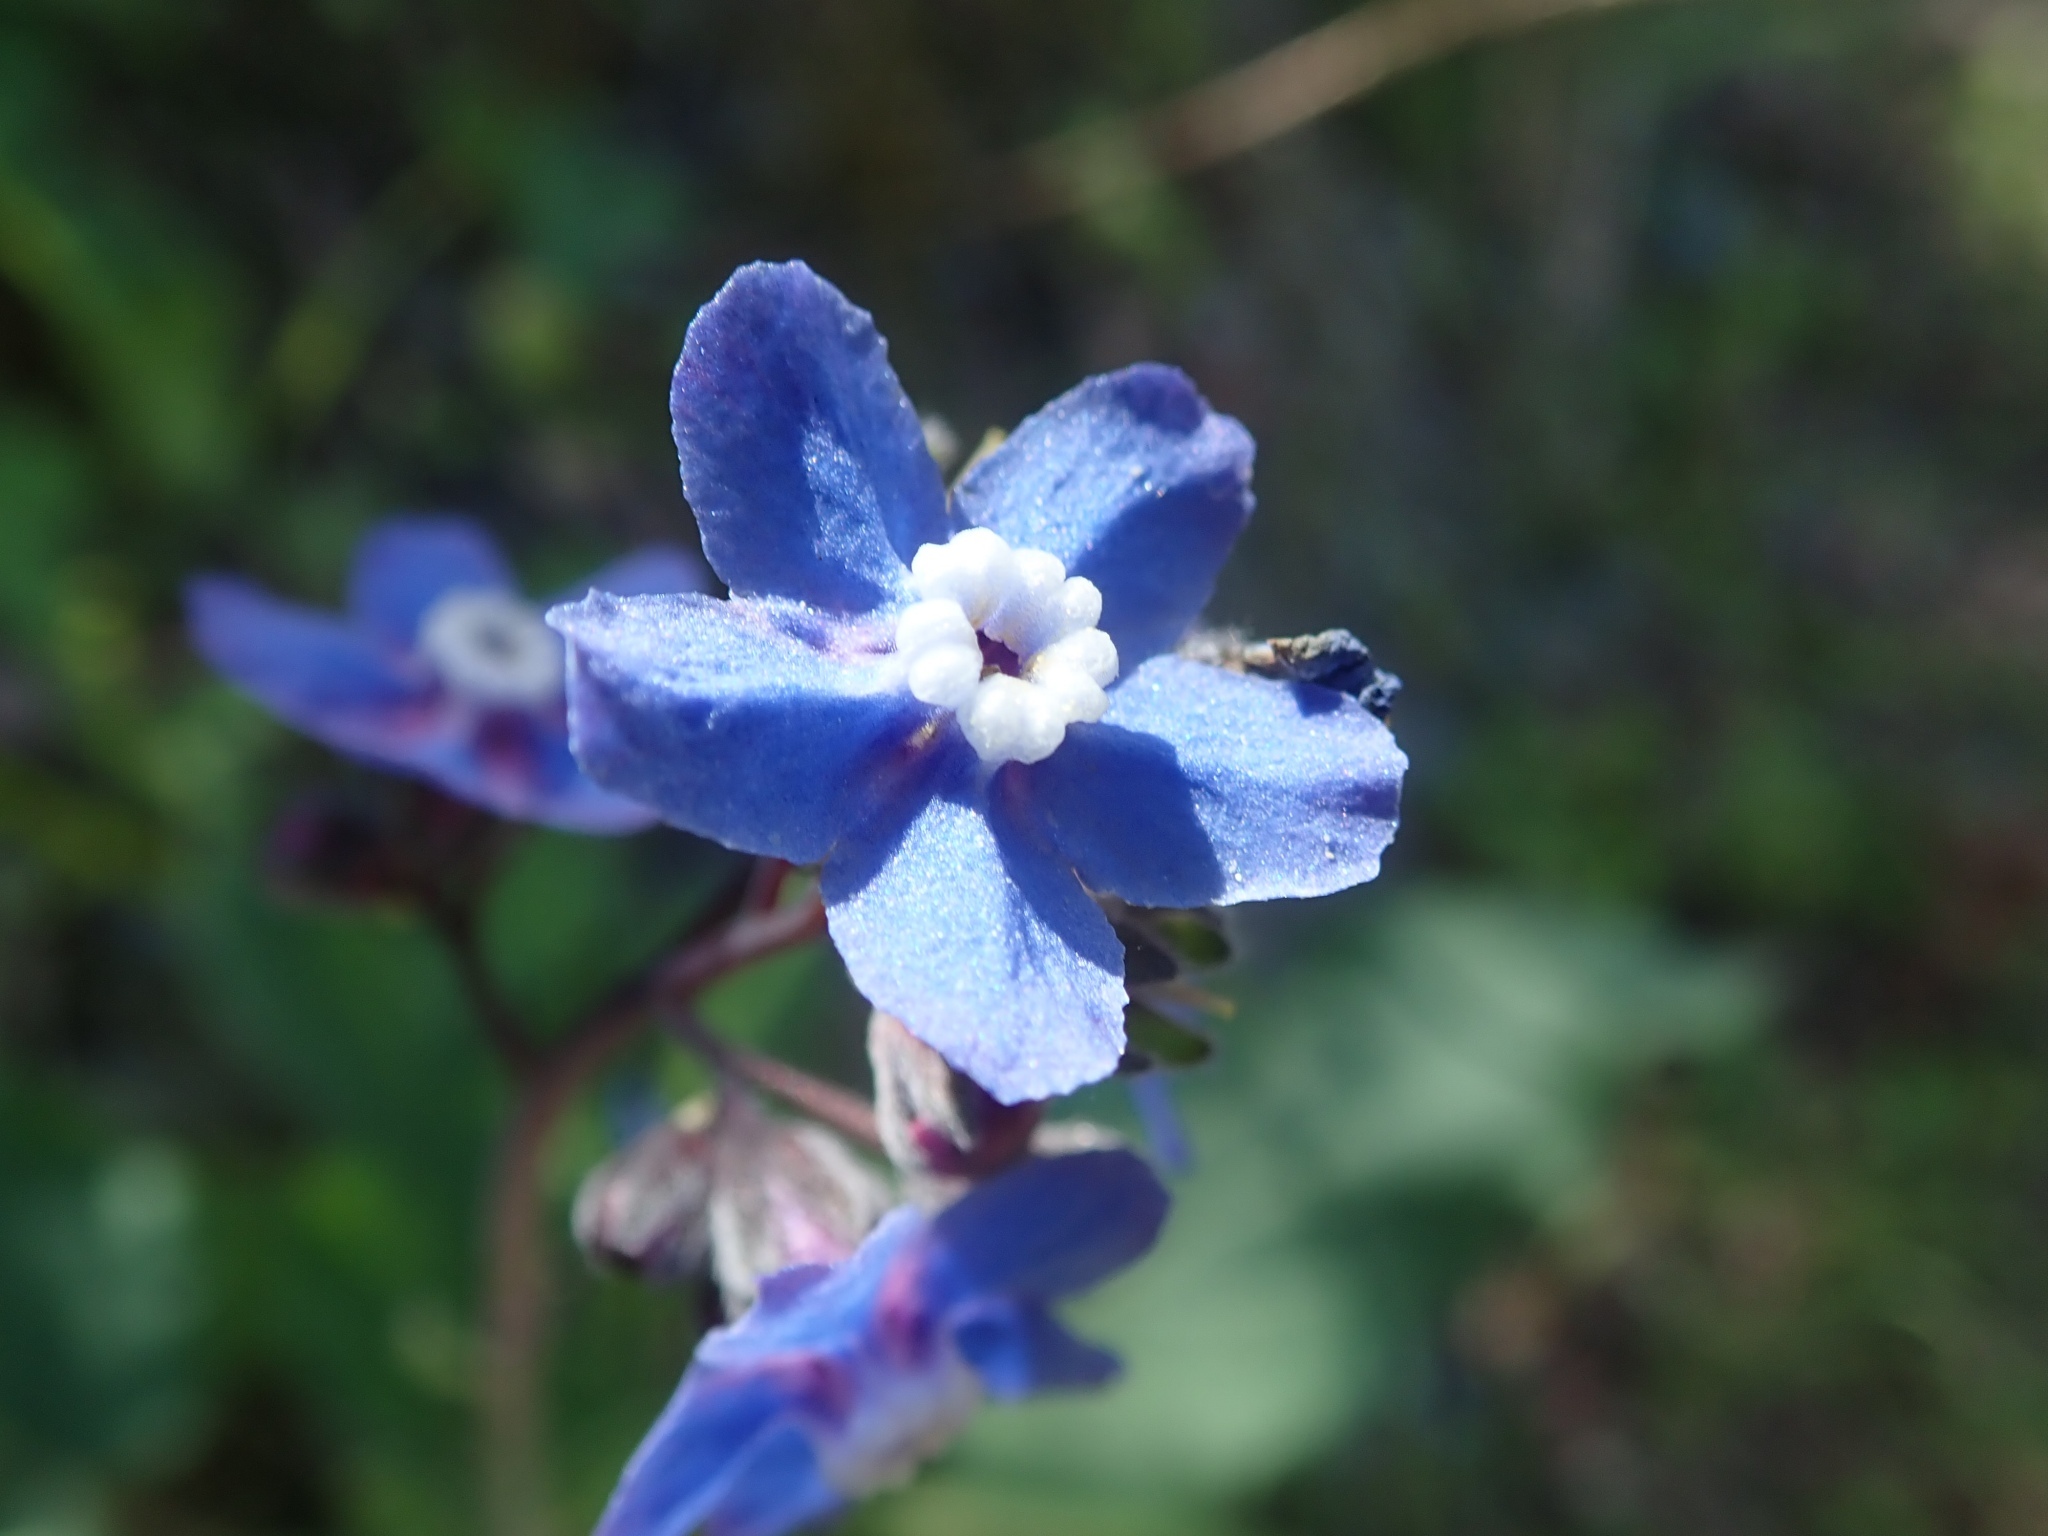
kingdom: Plantae
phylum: Tracheophyta
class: Magnoliopsida
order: Boraginales
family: Boraginaceae
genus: Adelinia
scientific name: Adelinia grande
